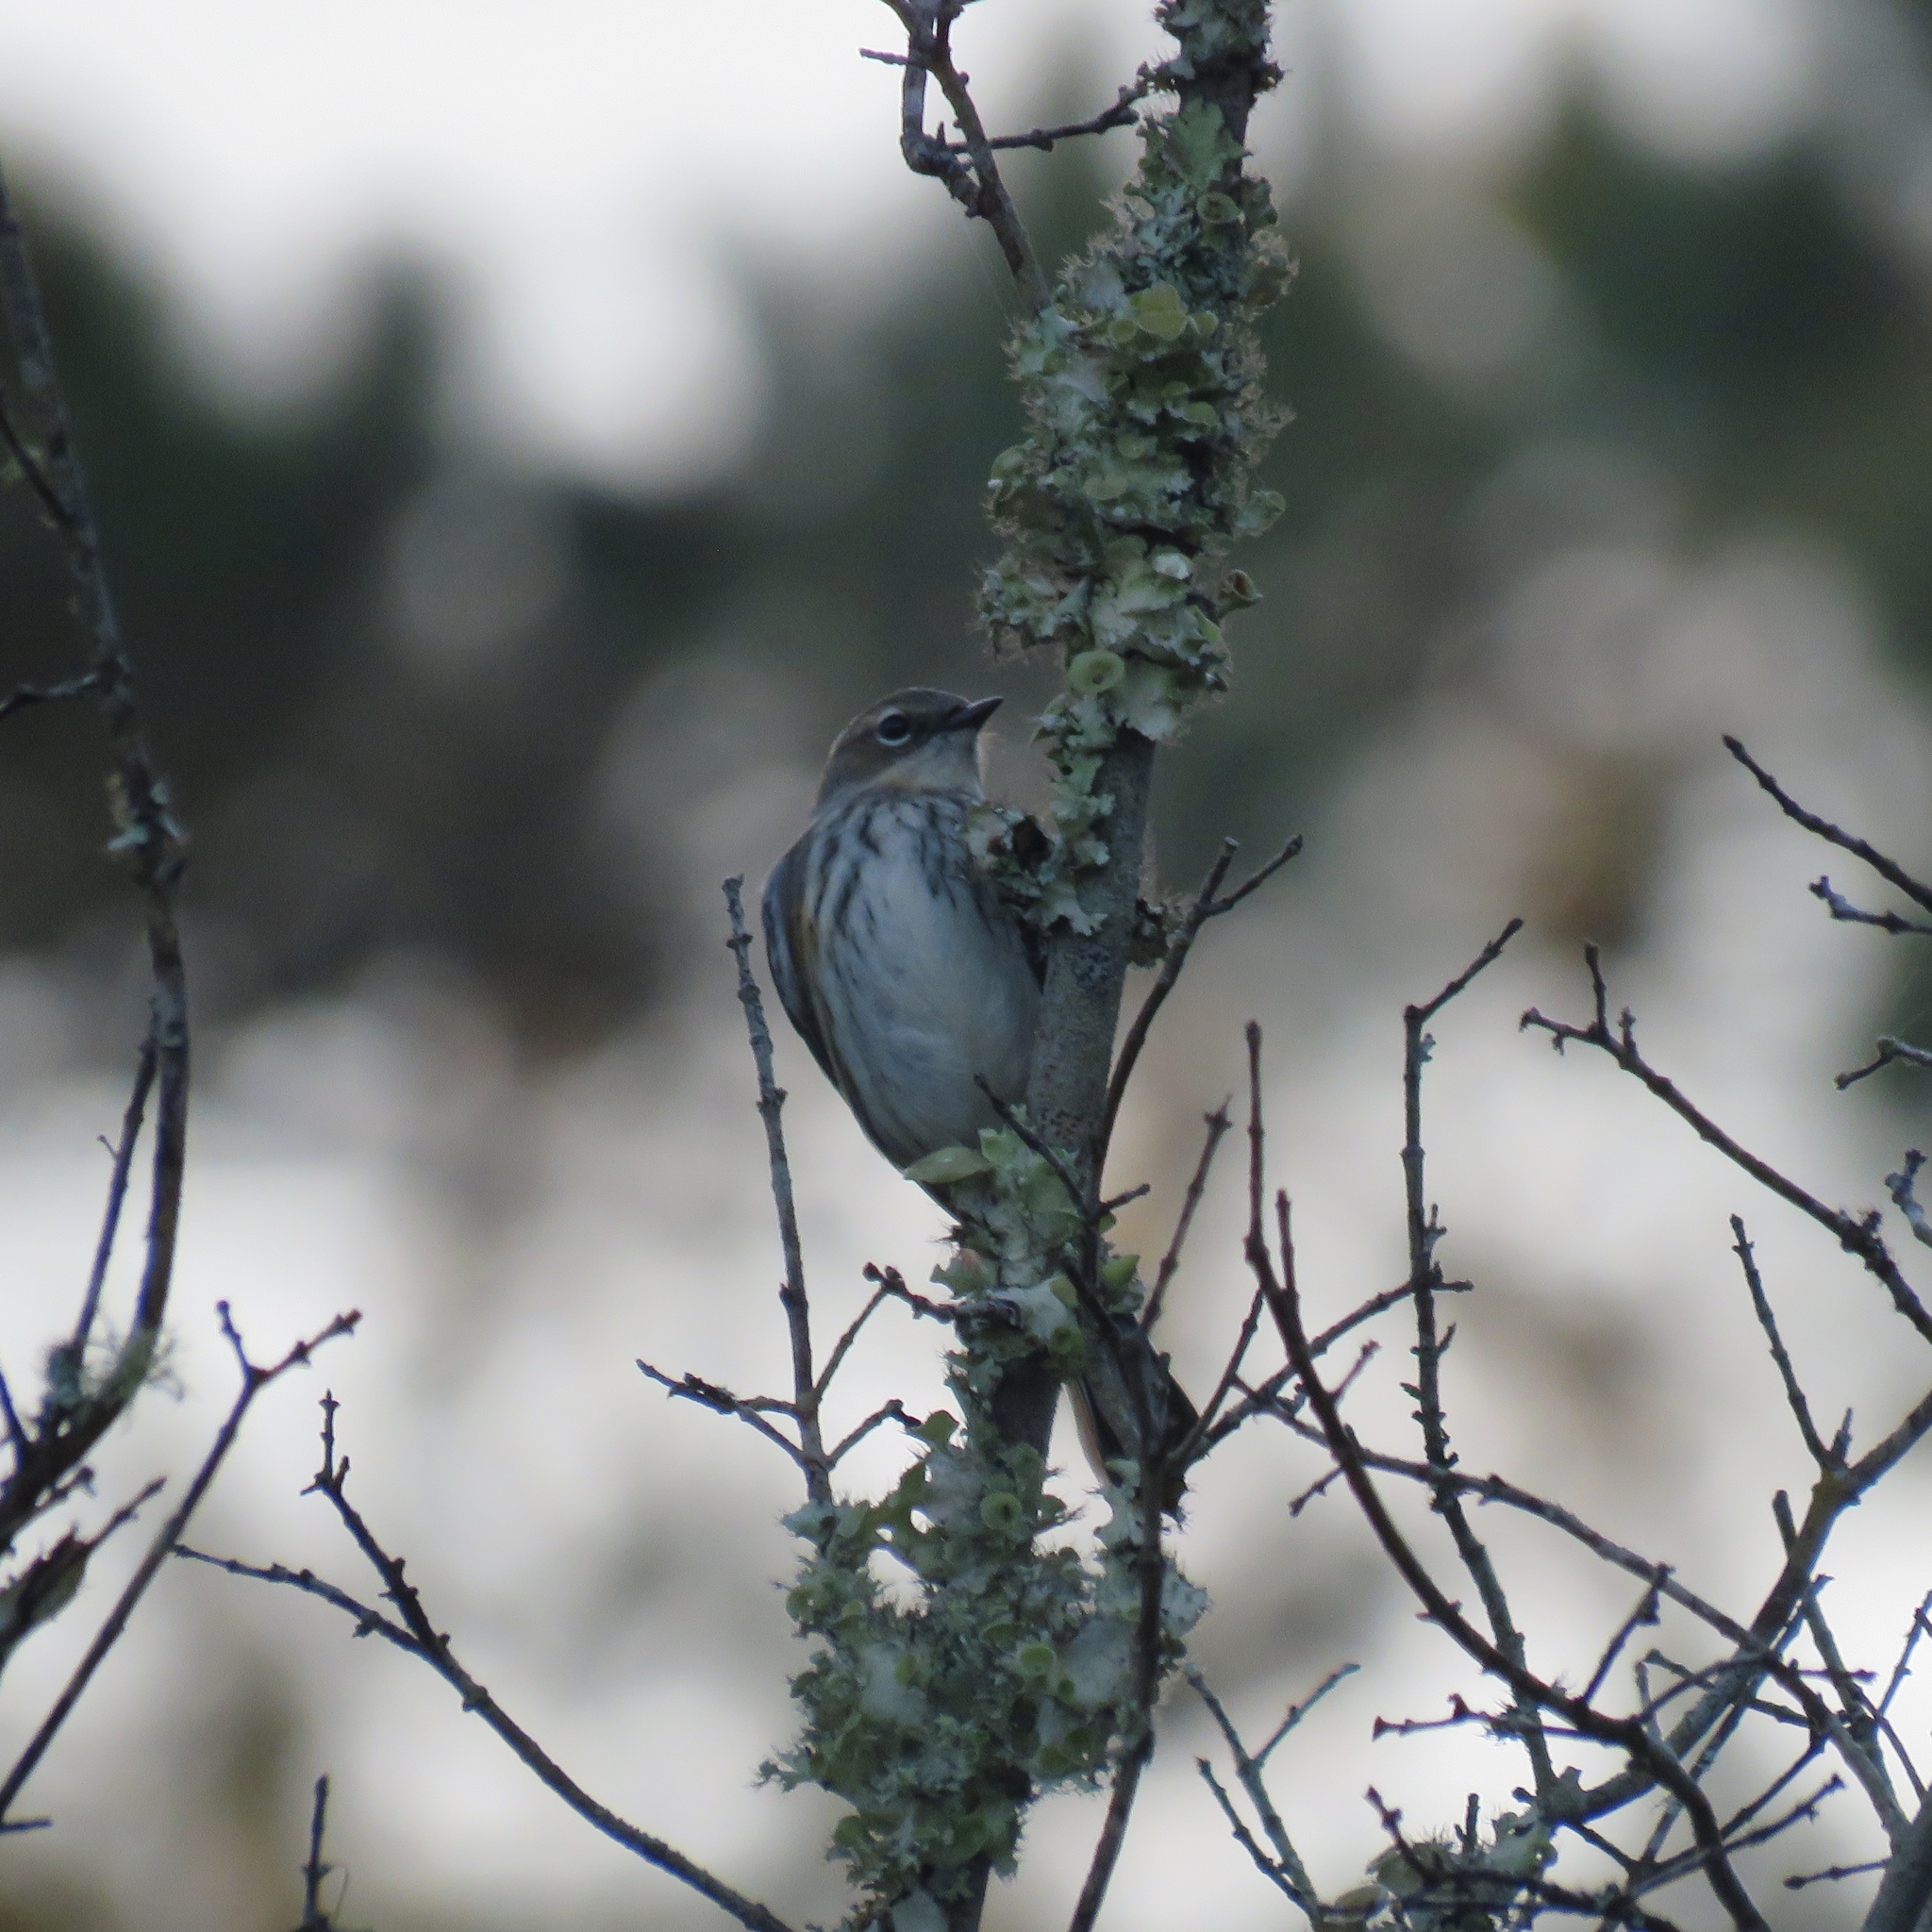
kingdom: Animalia
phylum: Chordata
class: Aves
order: Passeriformes
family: Parulidae
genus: Setophaga
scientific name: Setophaga coronata
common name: Myrtle warbler
